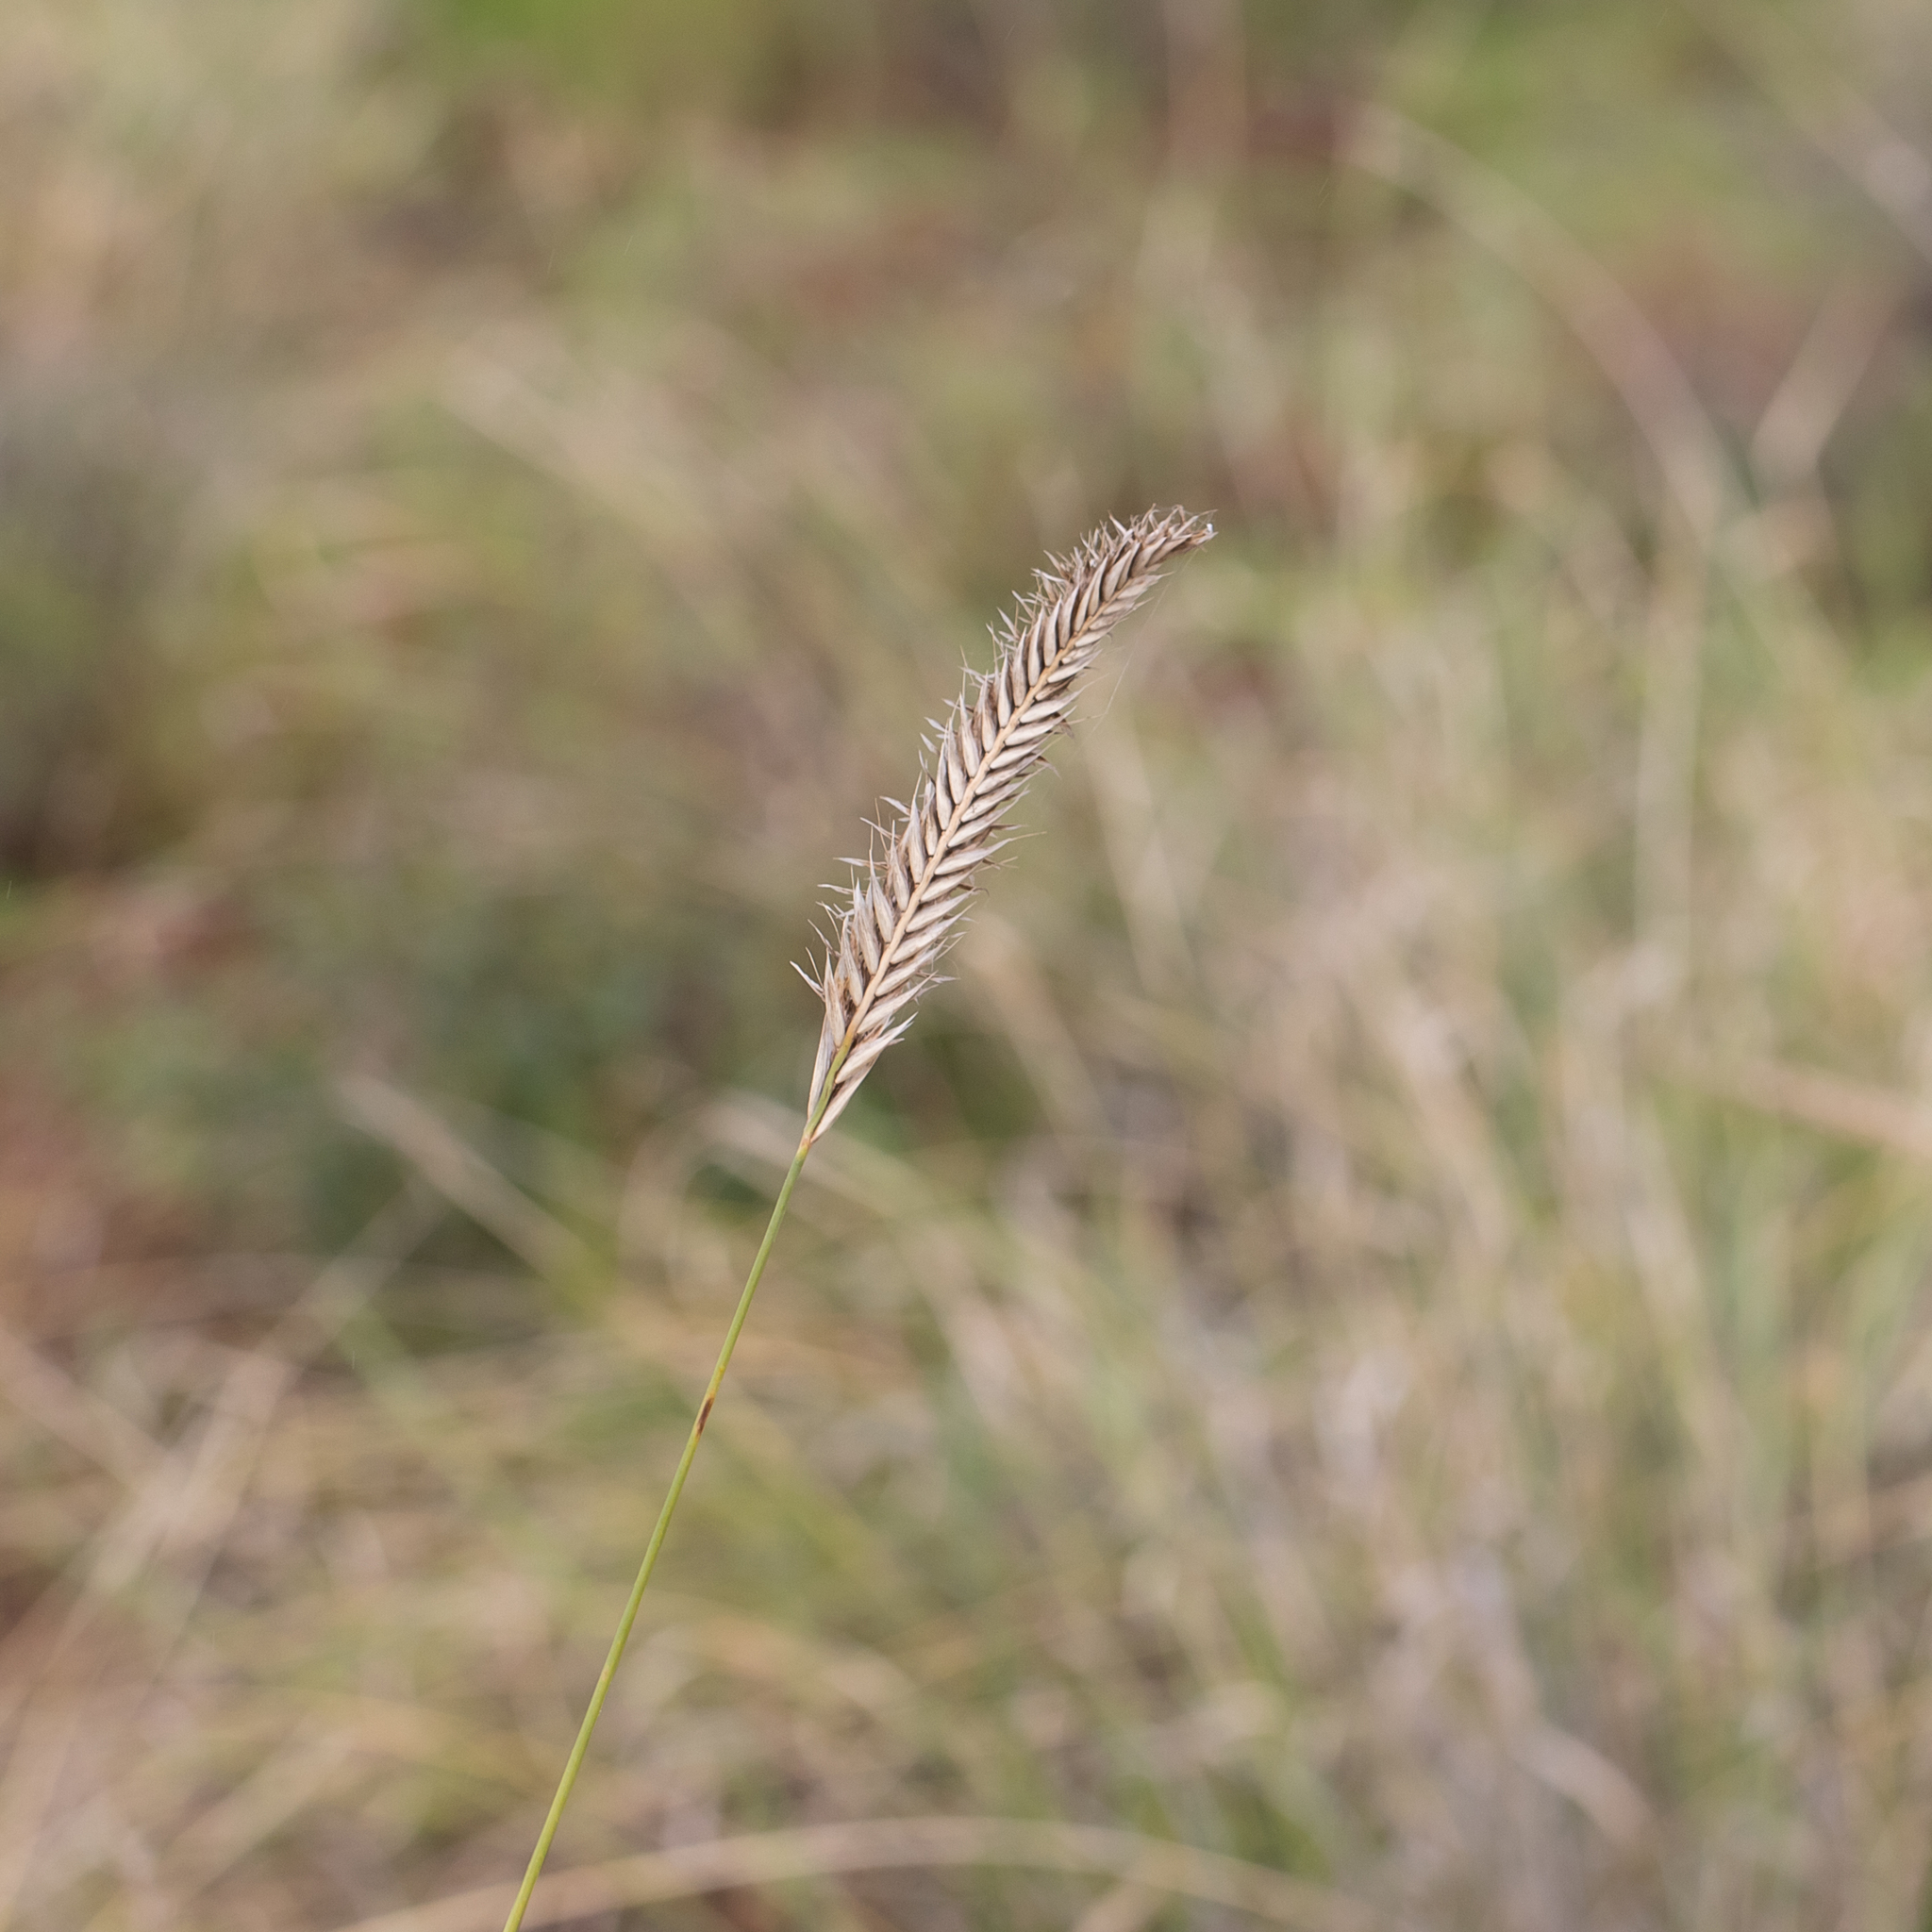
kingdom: Plantae
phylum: Tracheophyta
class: Liliopsida
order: Poales
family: Poaceae
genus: Astrebla
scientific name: Astrebla pectinata
